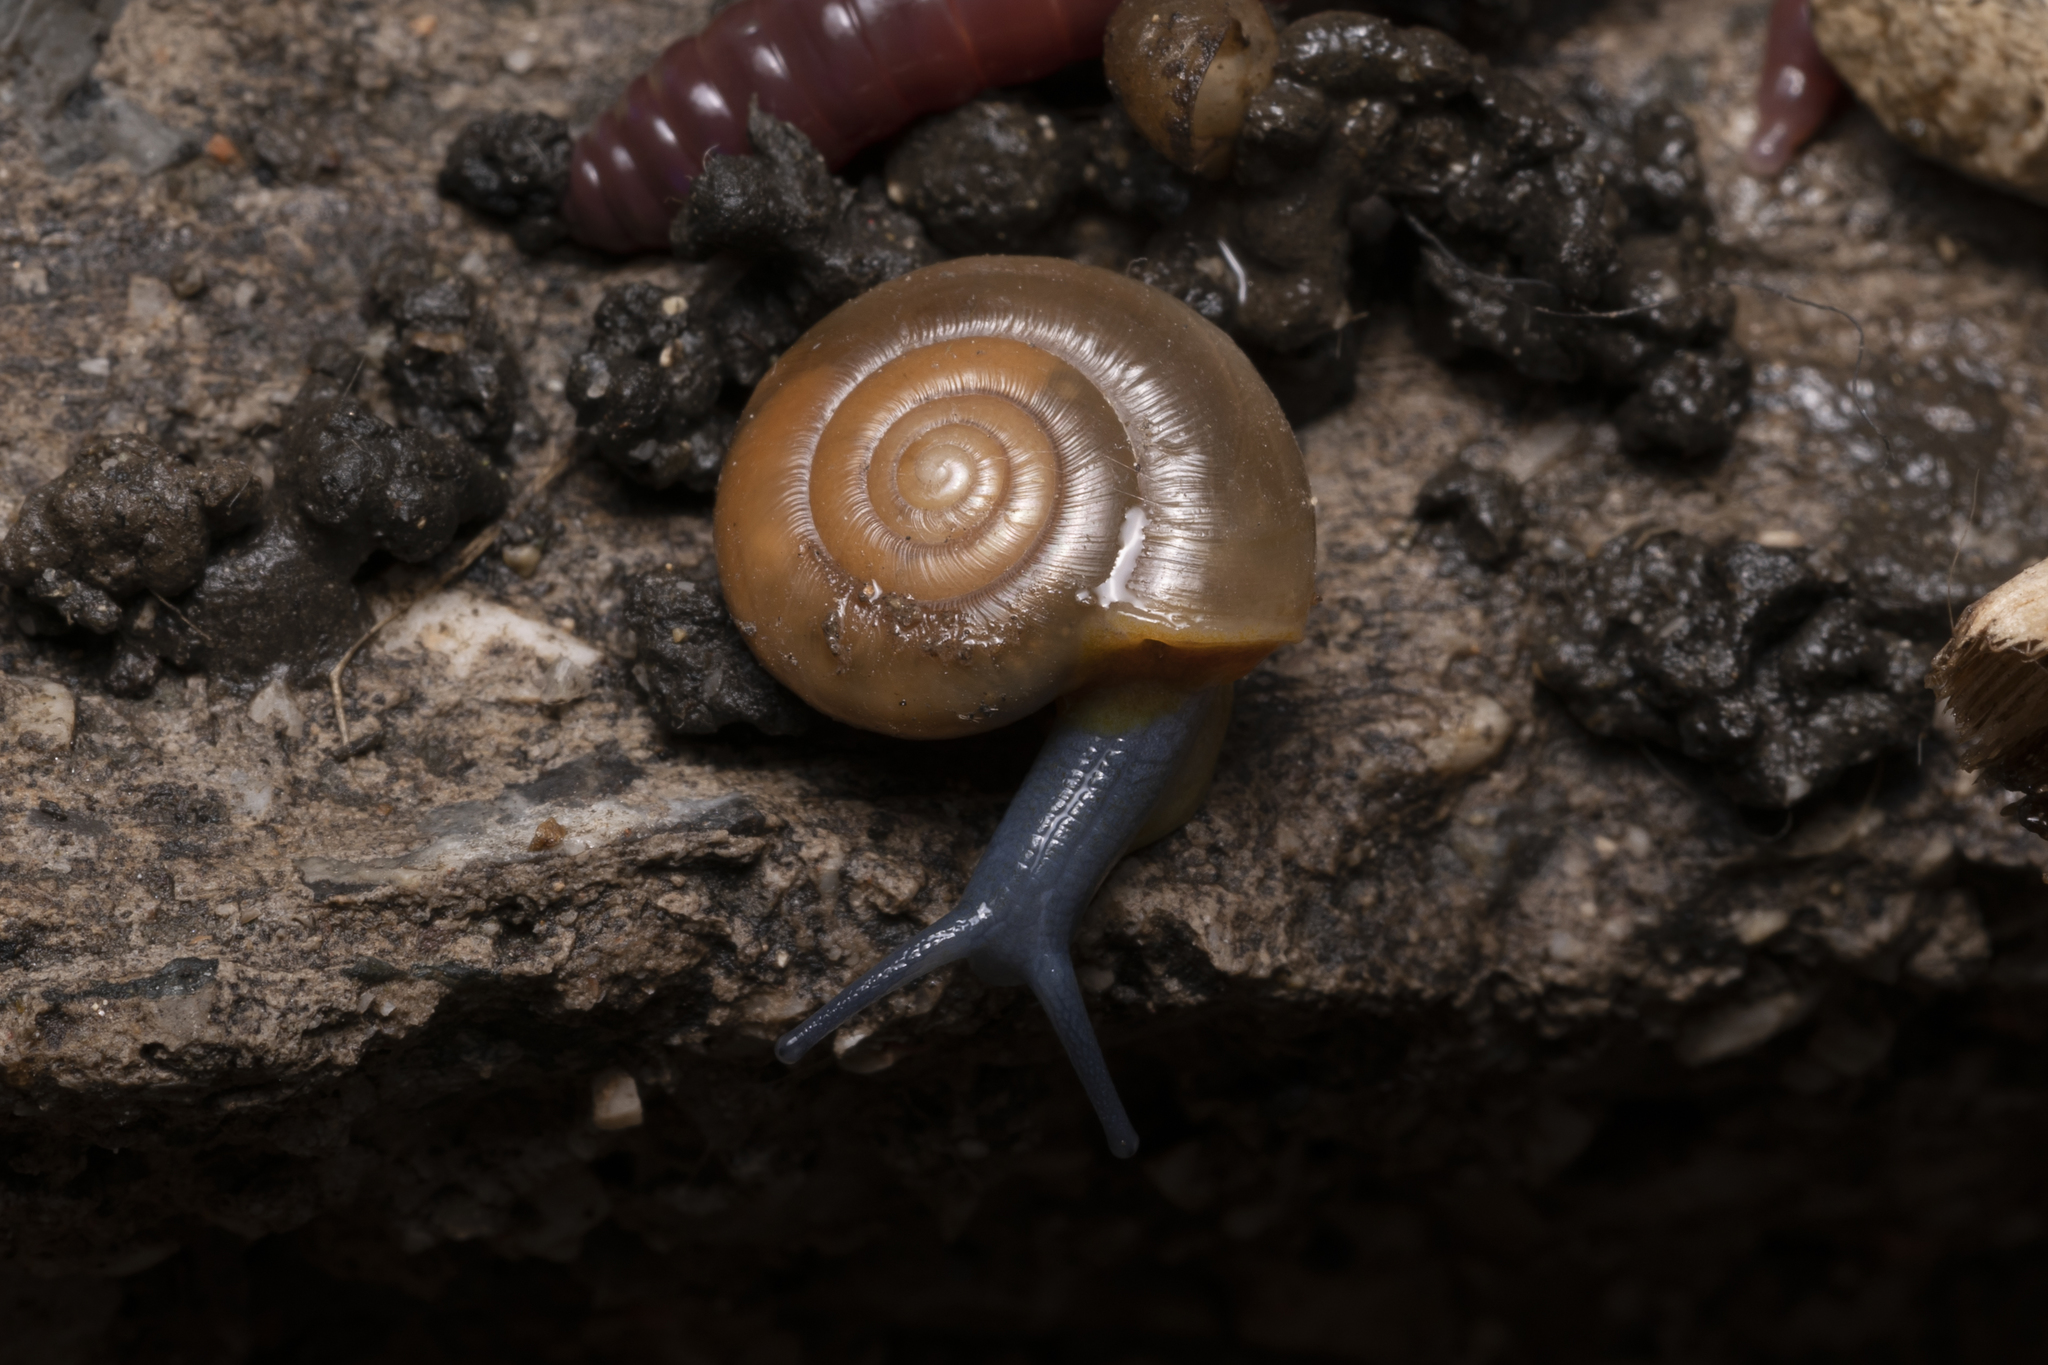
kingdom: Animalia
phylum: Mollusca
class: Gastropoda
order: Stylommatophora
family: Oxychilidae
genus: Oxychilus
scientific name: Oxychilus cyprius
